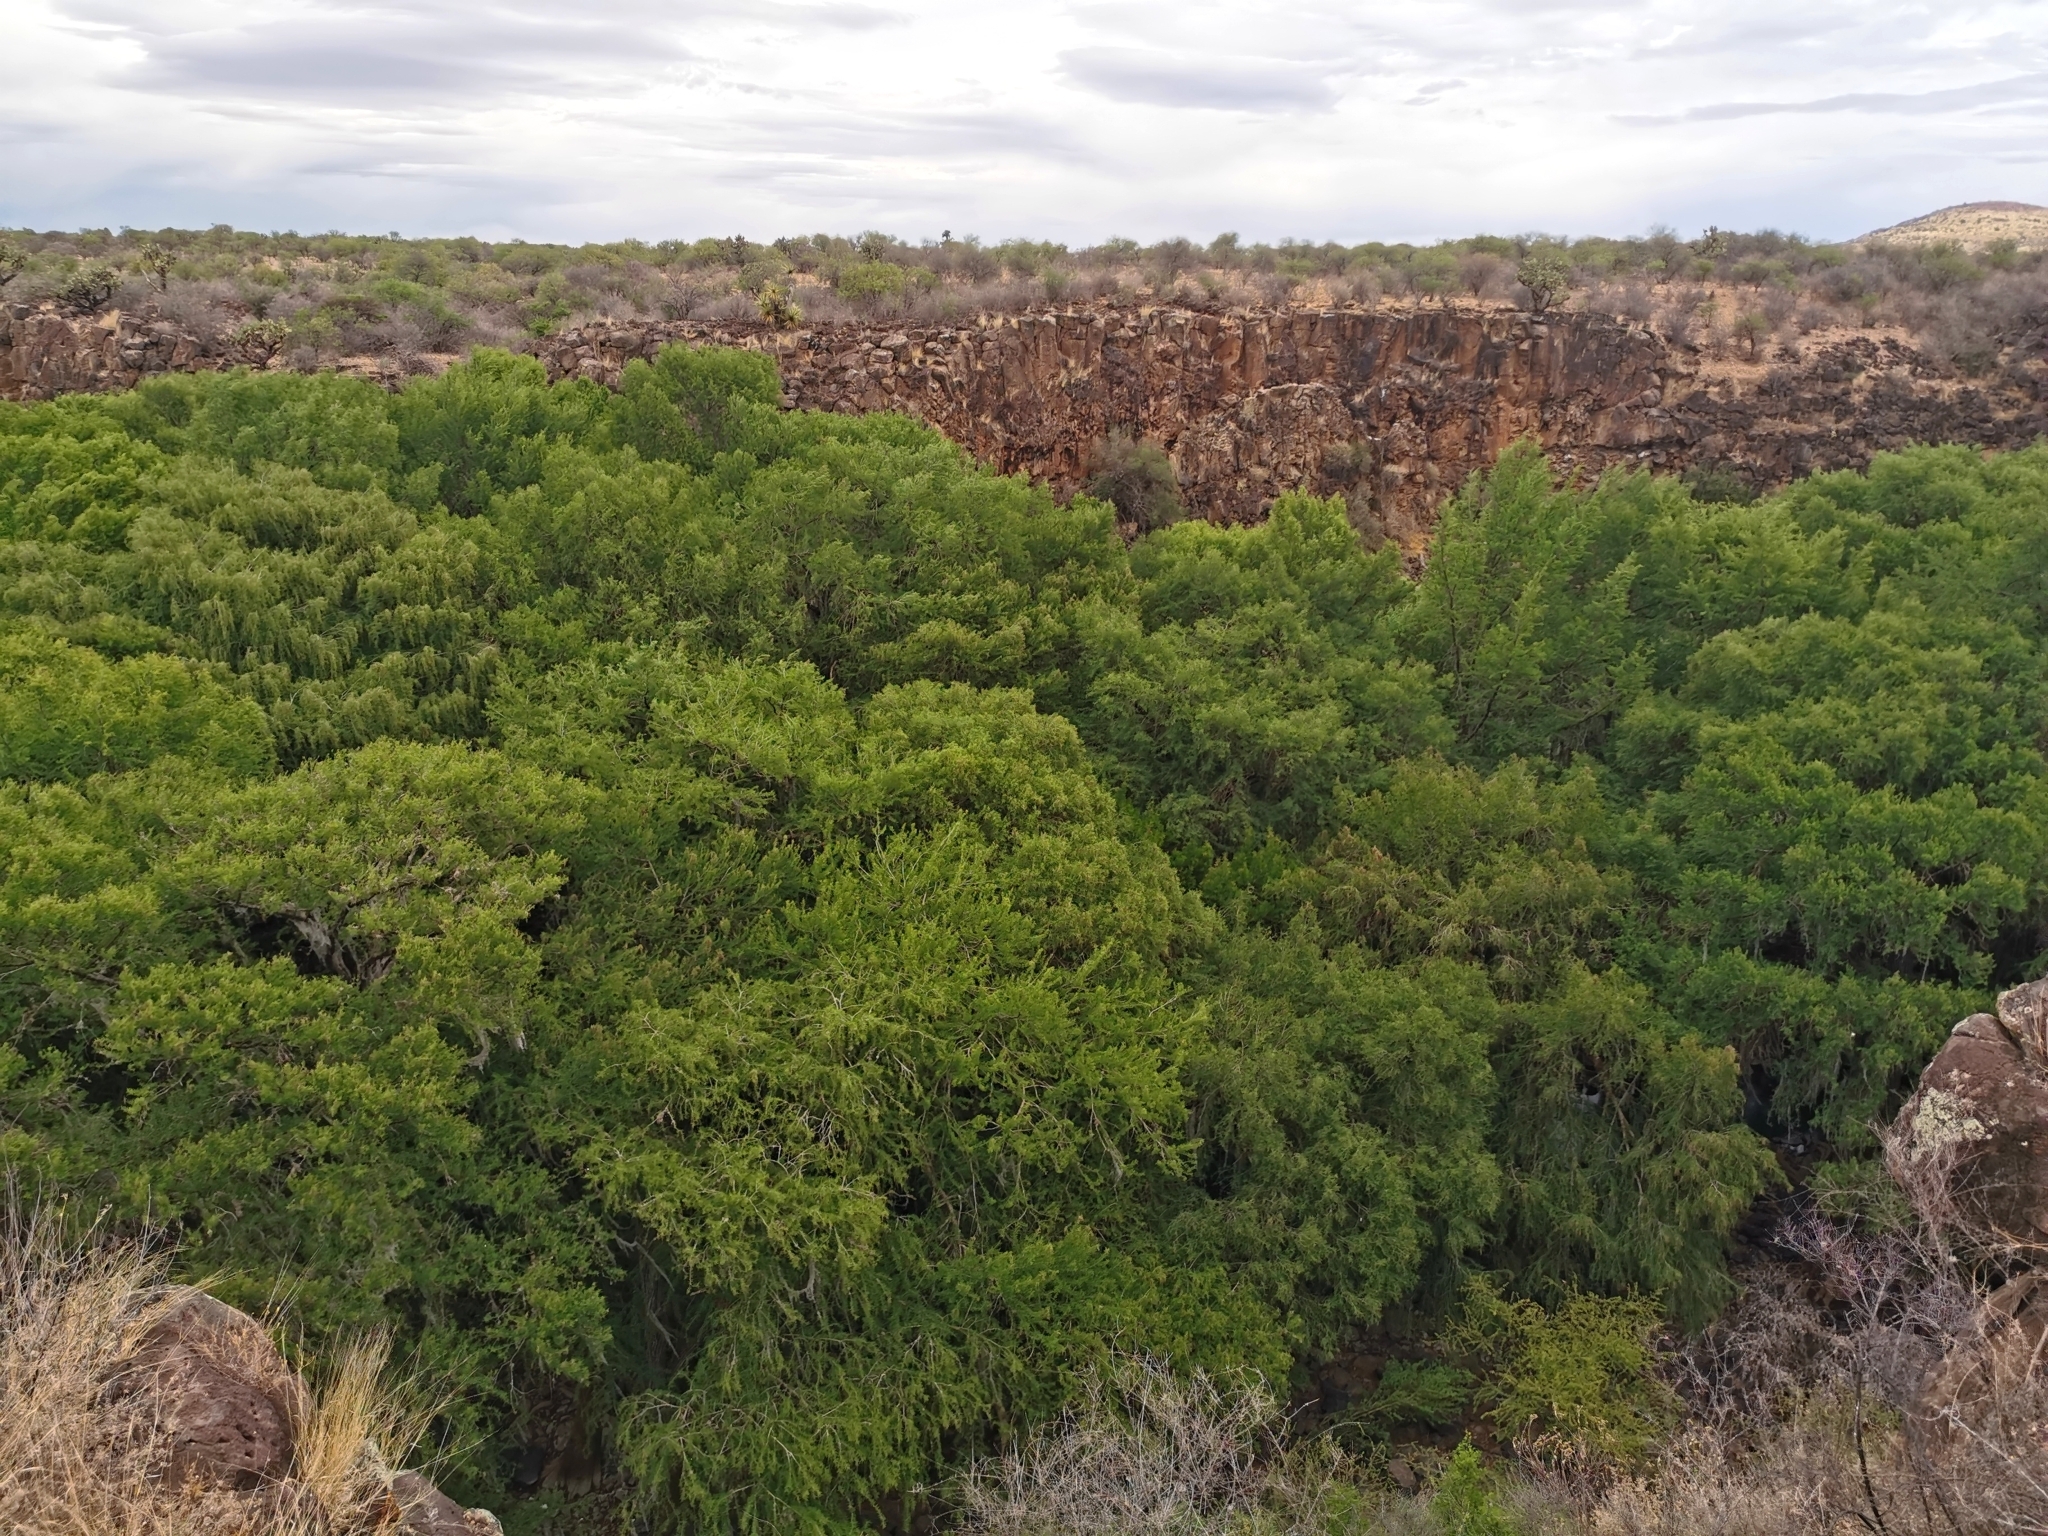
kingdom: Plantae
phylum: Tracheophyta
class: Pinopsida
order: Pinales
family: Cupressaceae
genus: Taxodium
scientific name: Taxodium mucronatum
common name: Montezume bald cypress
